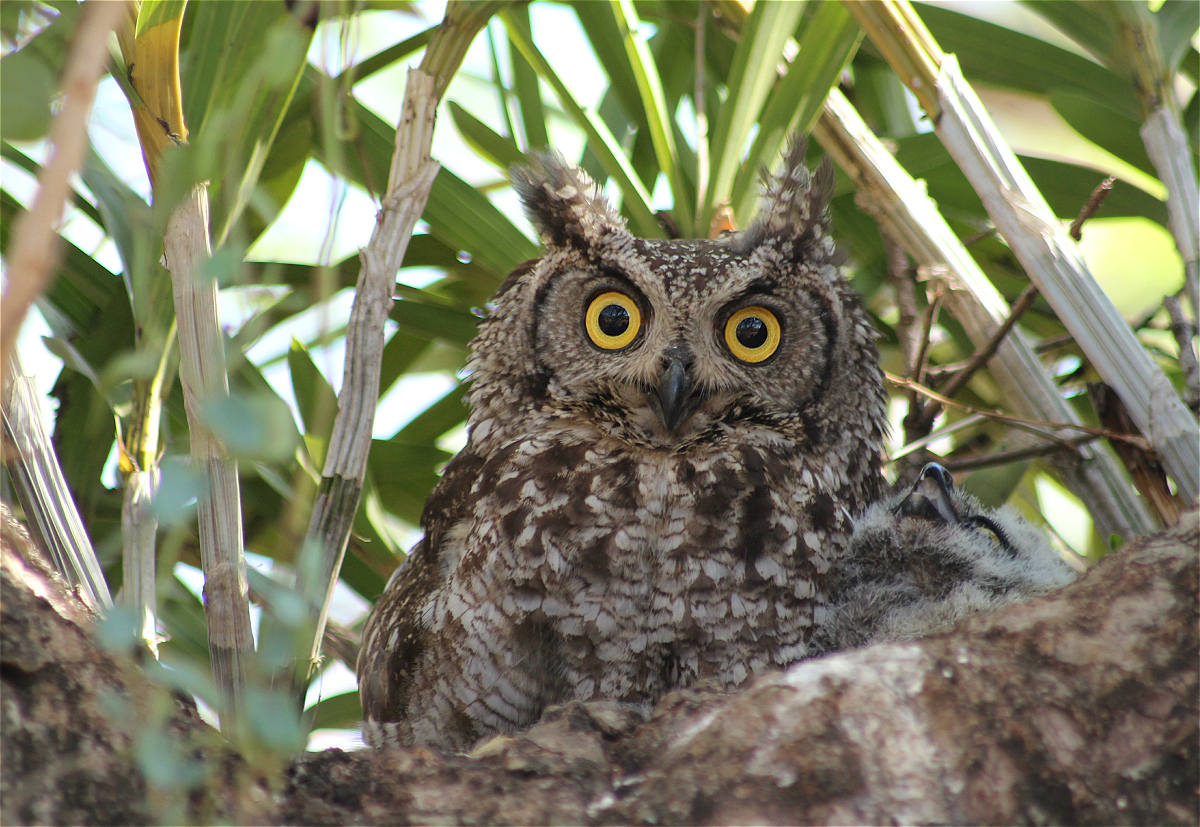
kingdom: Animalia
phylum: Chordata
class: Aves
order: Strigiformes
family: Strigidae
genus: Bubo
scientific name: Bubo africanus
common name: Spotted eagle-owl
